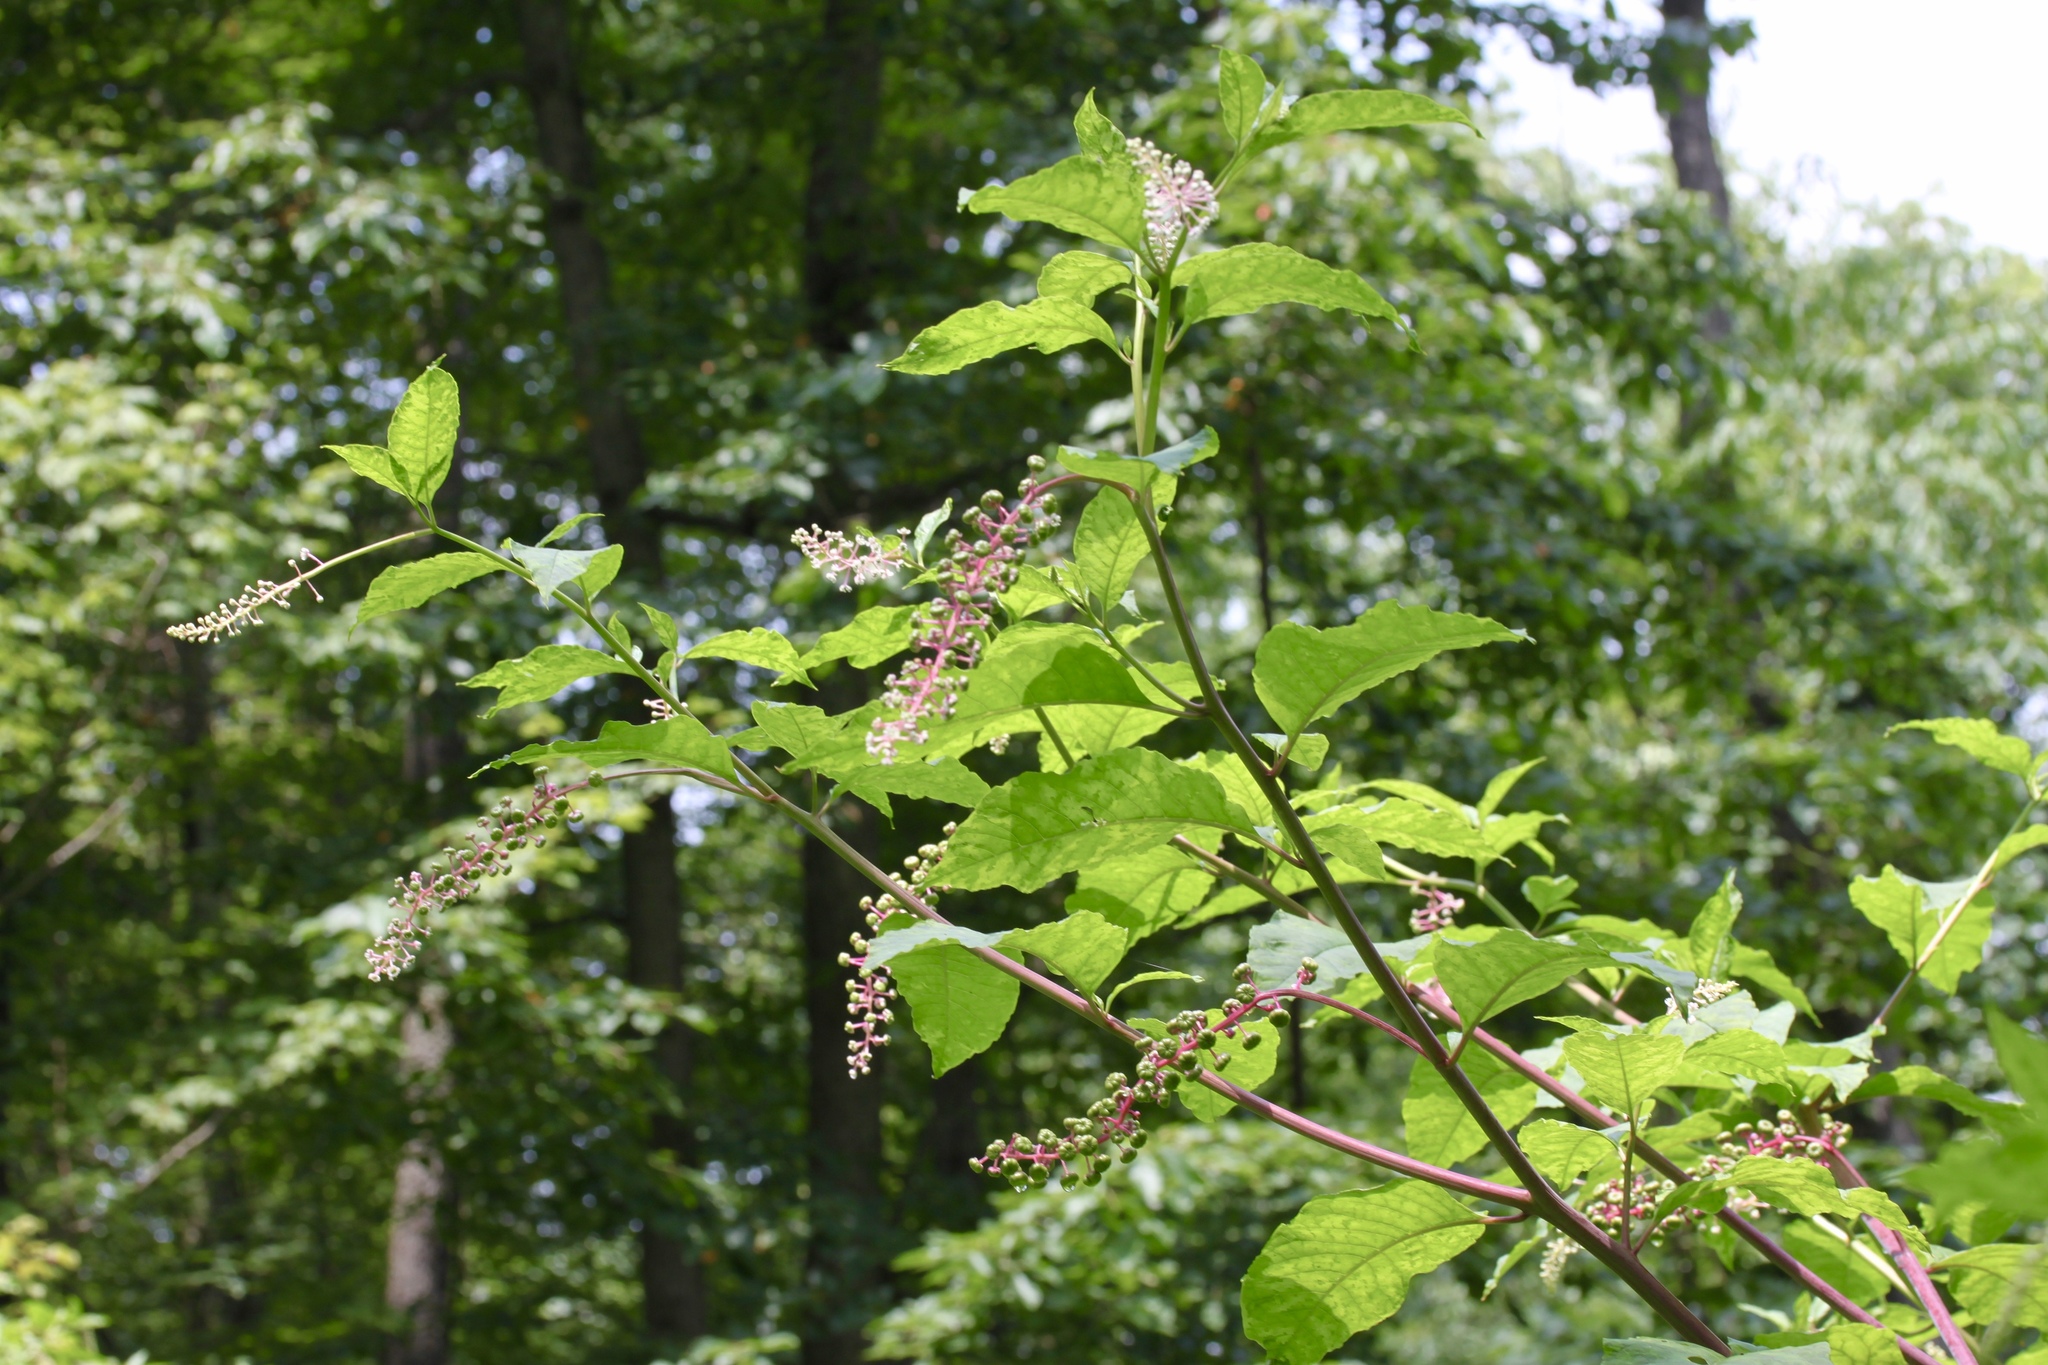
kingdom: Plantae
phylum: Tracheophyta
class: Magnoliopsida
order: Caryophyllales
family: Phytolaccaceae
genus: Phytolacca
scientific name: Phytolacca americana
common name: American pokeweed
